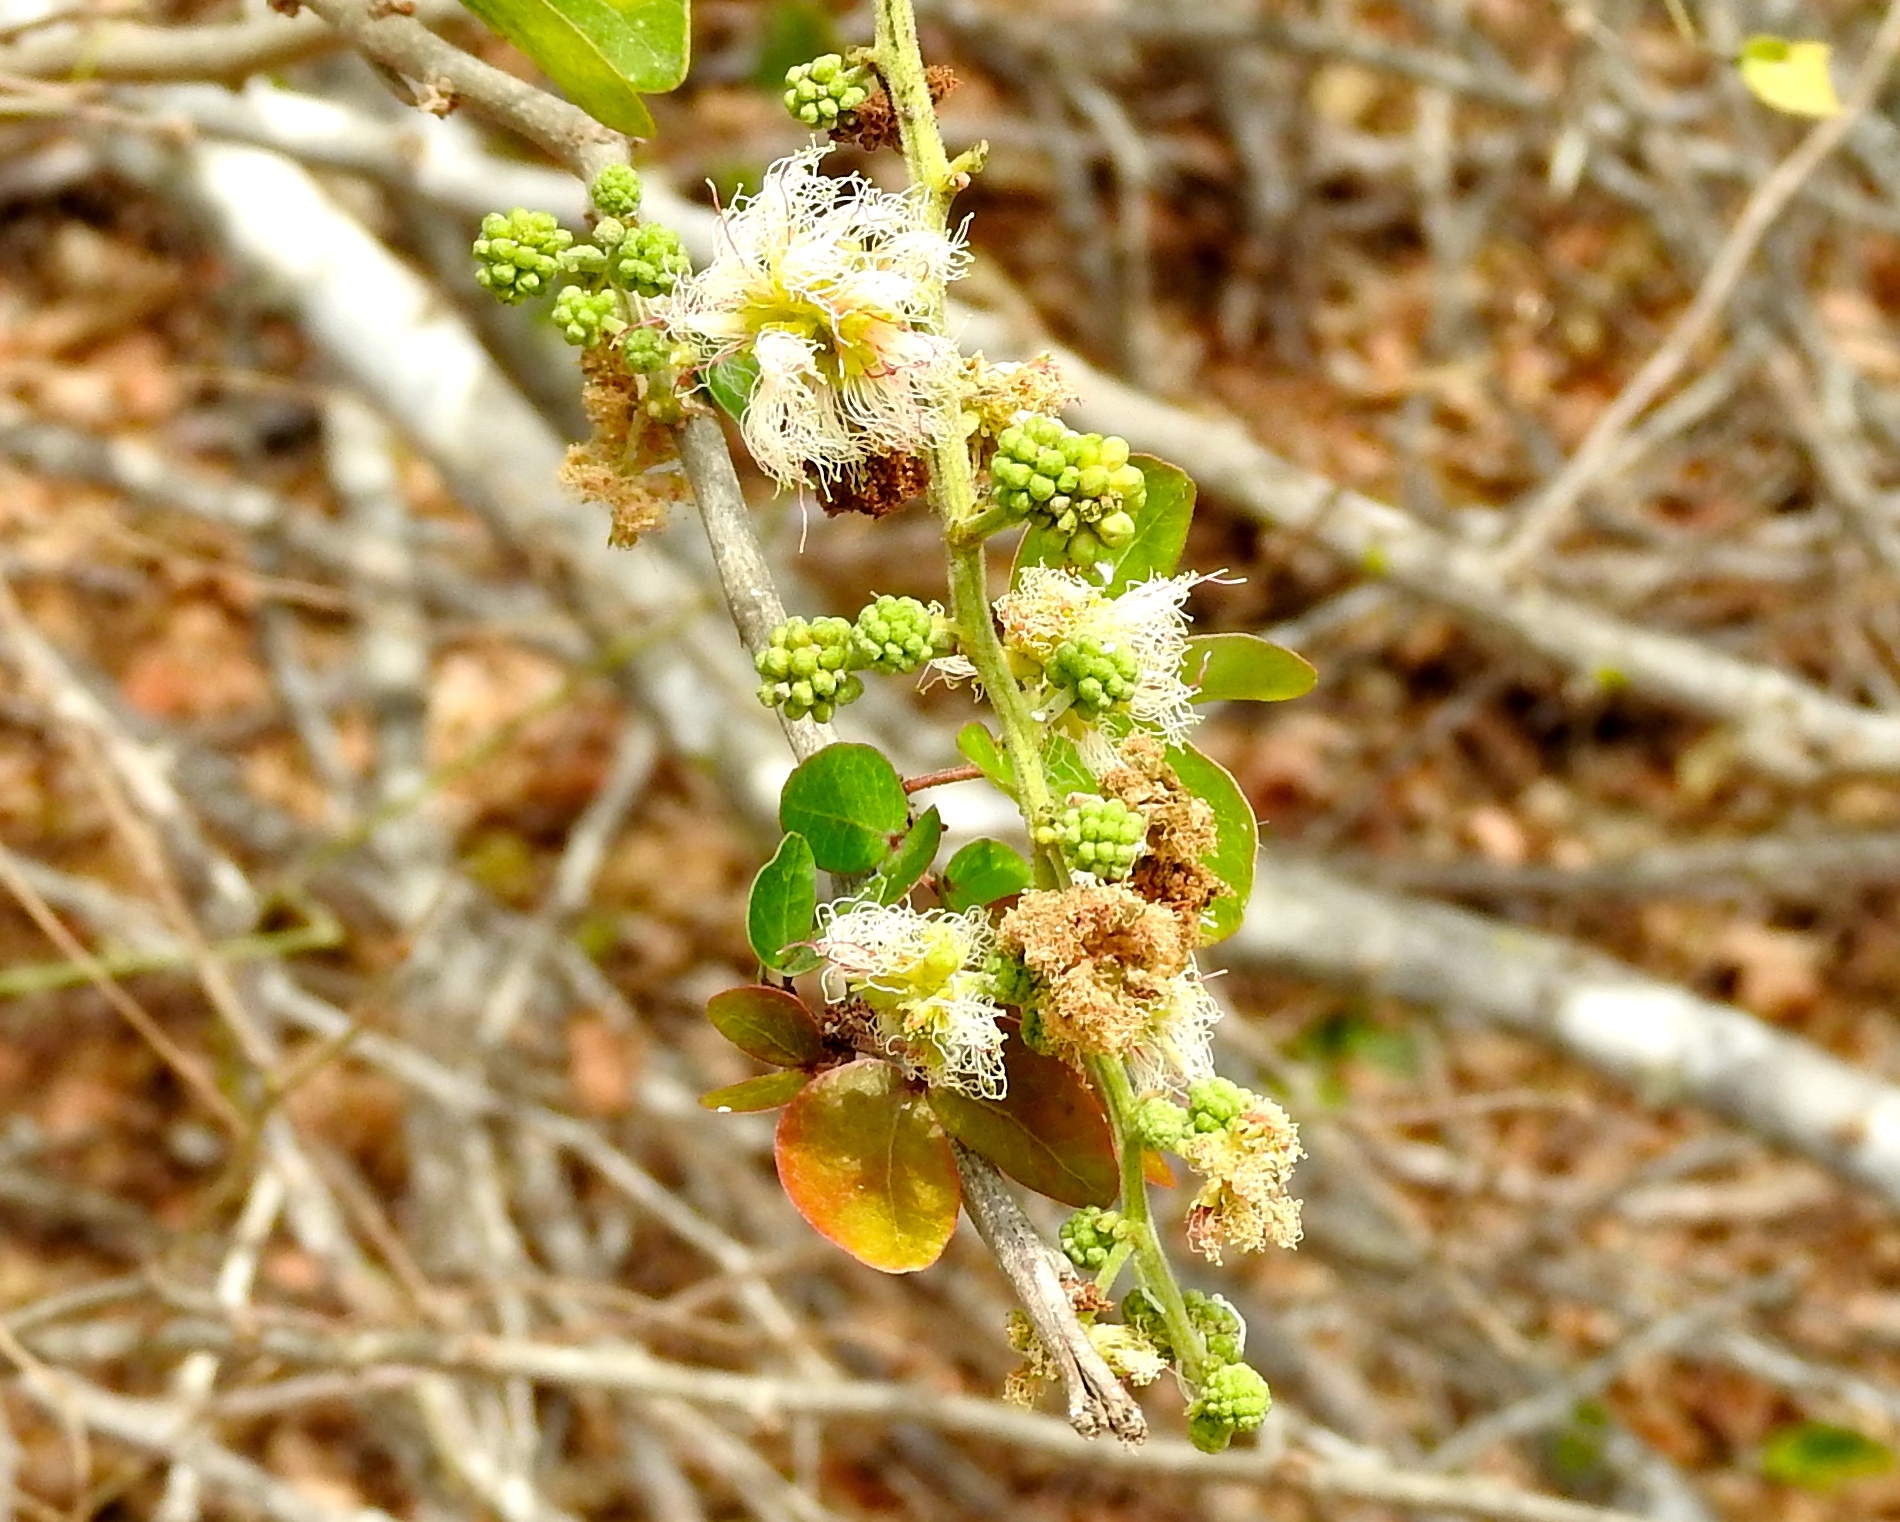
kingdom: Plantae
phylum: Tracheophyta
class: Magnoliopsida
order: Fabales
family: Fabaceae
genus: Pithecellobium
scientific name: Pithecellobium dulce
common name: Monkeypod
